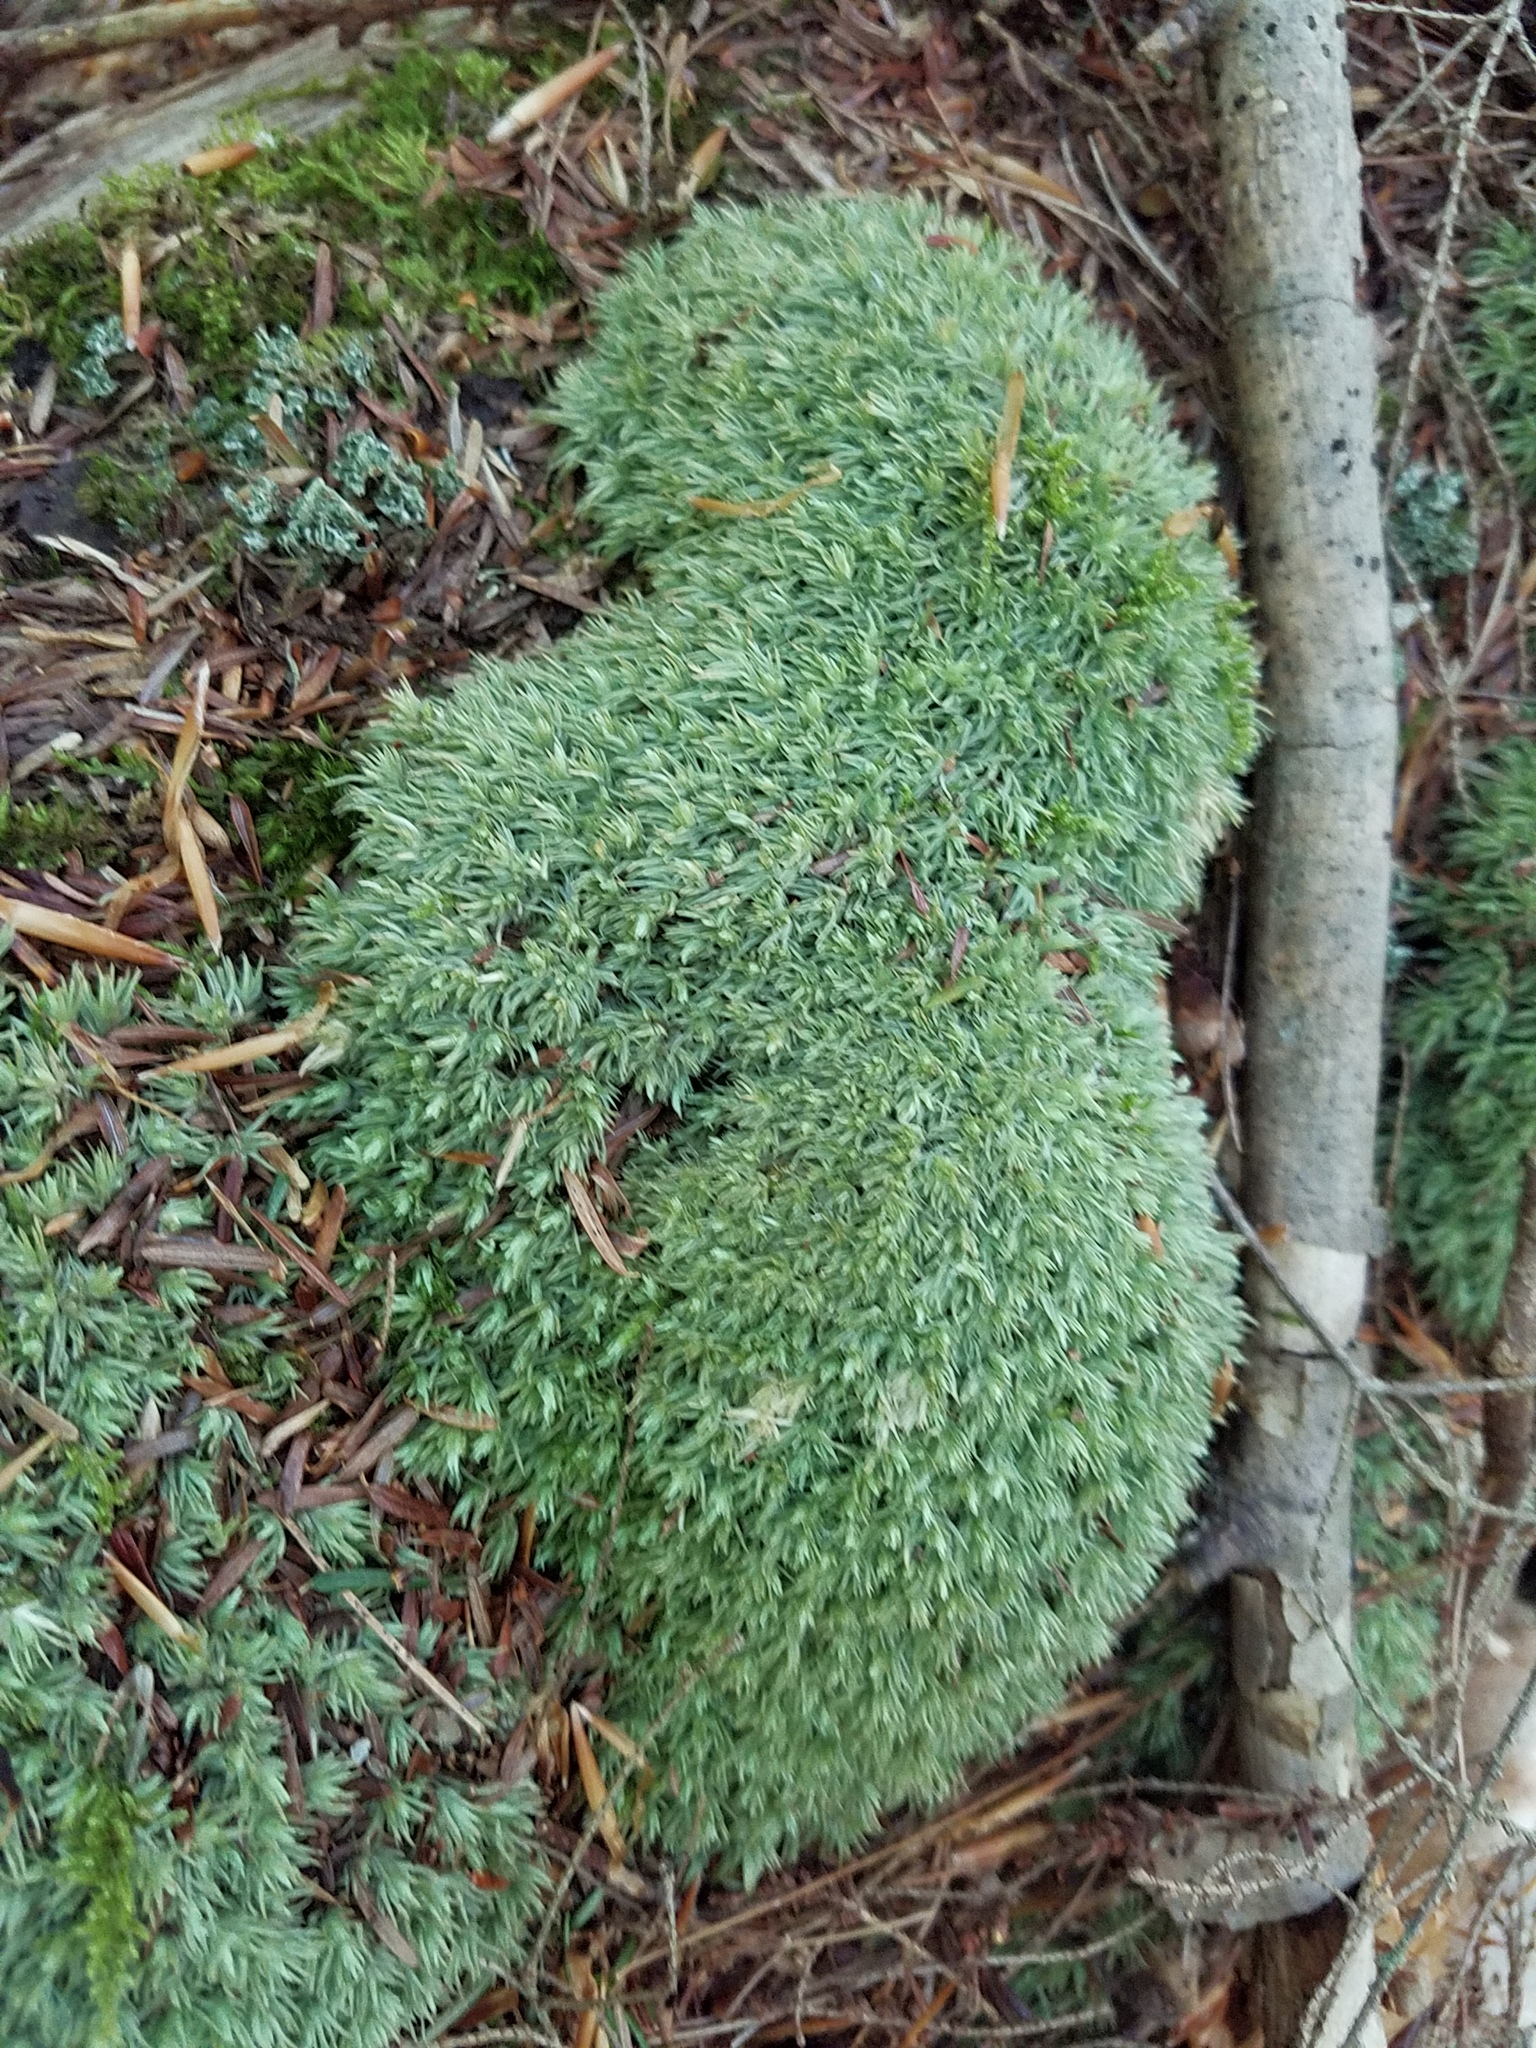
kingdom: Plantae
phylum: Bryophyta
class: Bryopsida
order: Dicranales
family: Leucobryaceae
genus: Leucobryum
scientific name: Leucobryum glaucum
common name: Large white-moss
